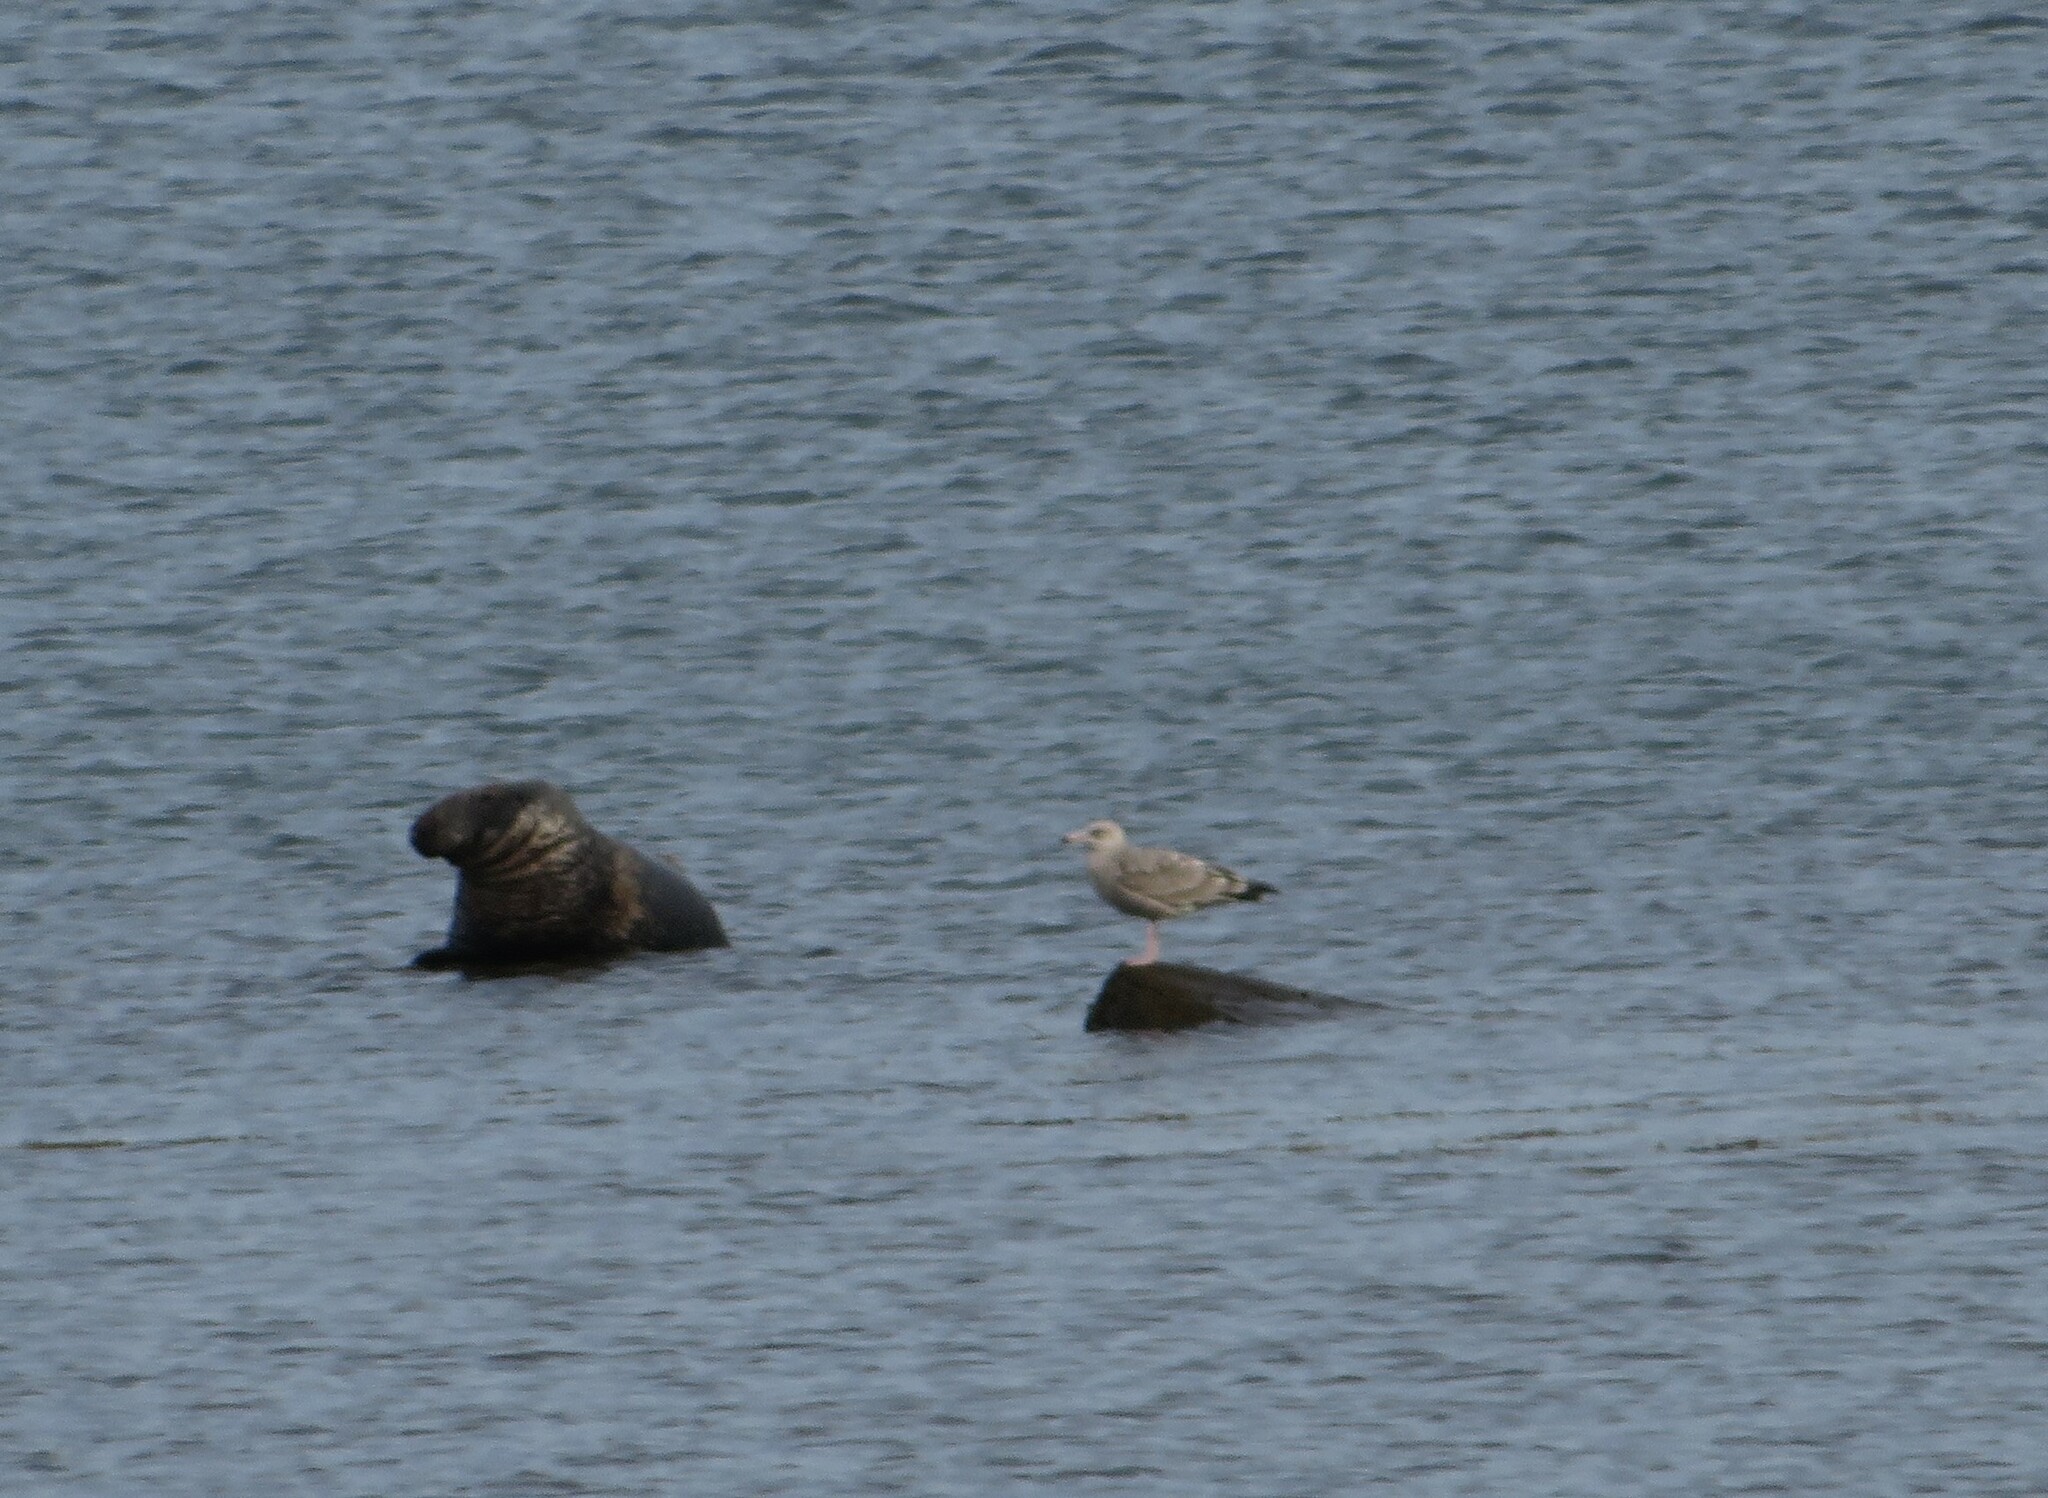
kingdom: Animalia
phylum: Chordata
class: Mammalia
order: Carnivora
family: Phocidae
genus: Halichoerus
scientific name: Halichoerus grypus
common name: Grey seal
